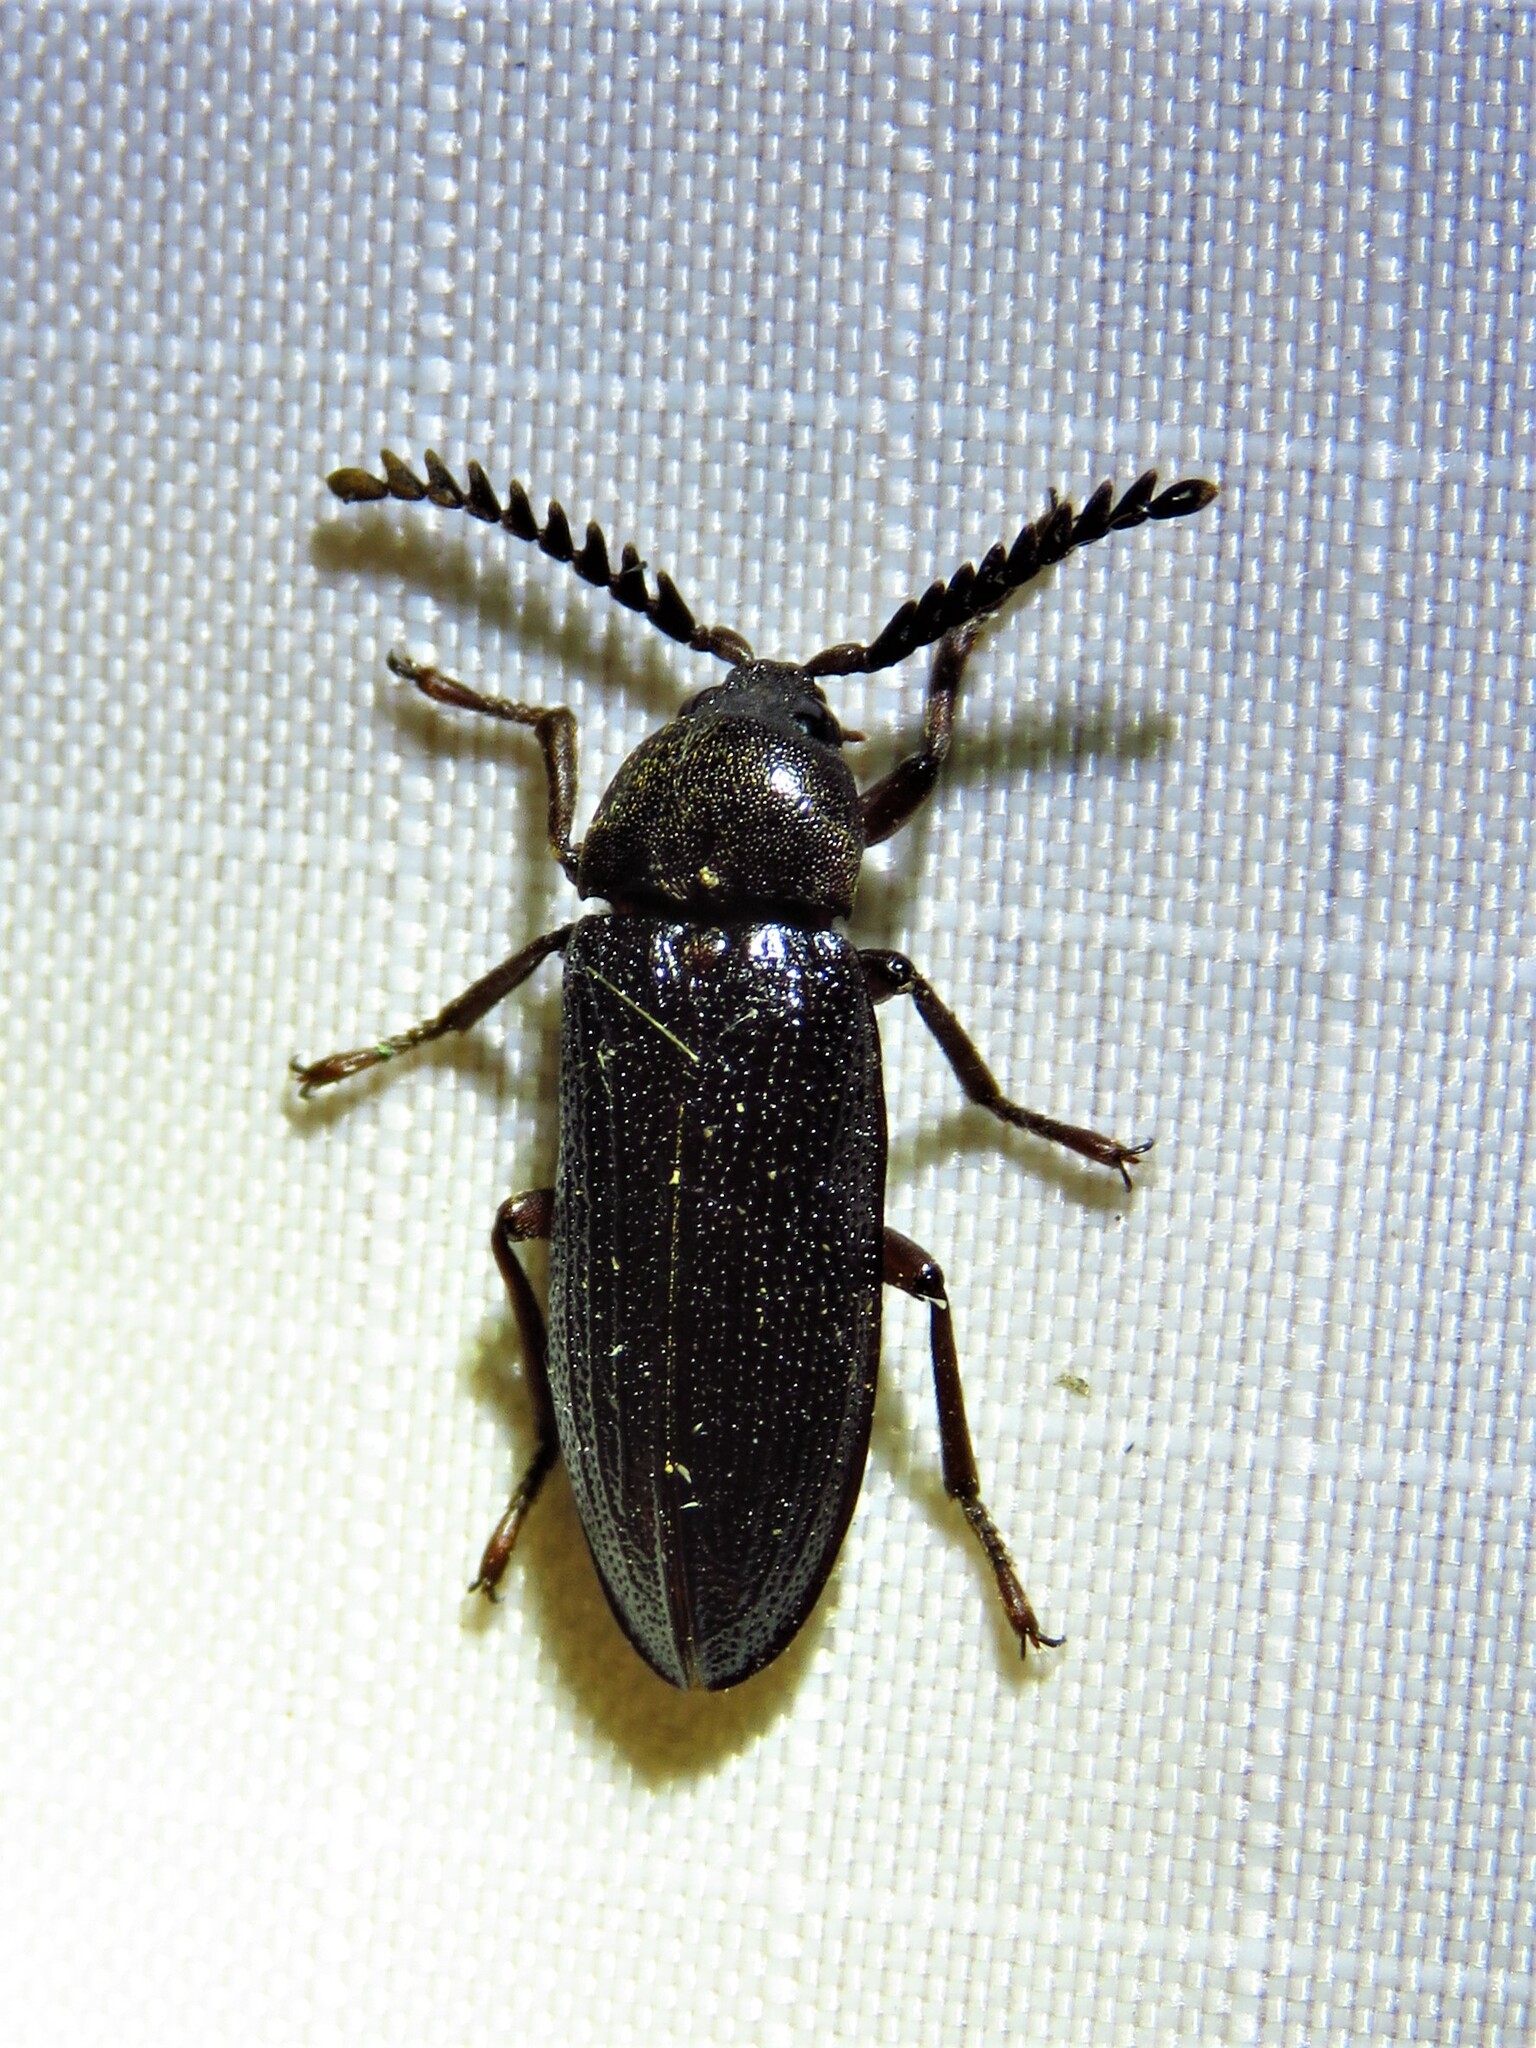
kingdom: Animalia
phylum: Arthropoda
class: Insecta
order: Coleoptera
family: Callirhipidae
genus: Zenoa
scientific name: Zenoa picea
